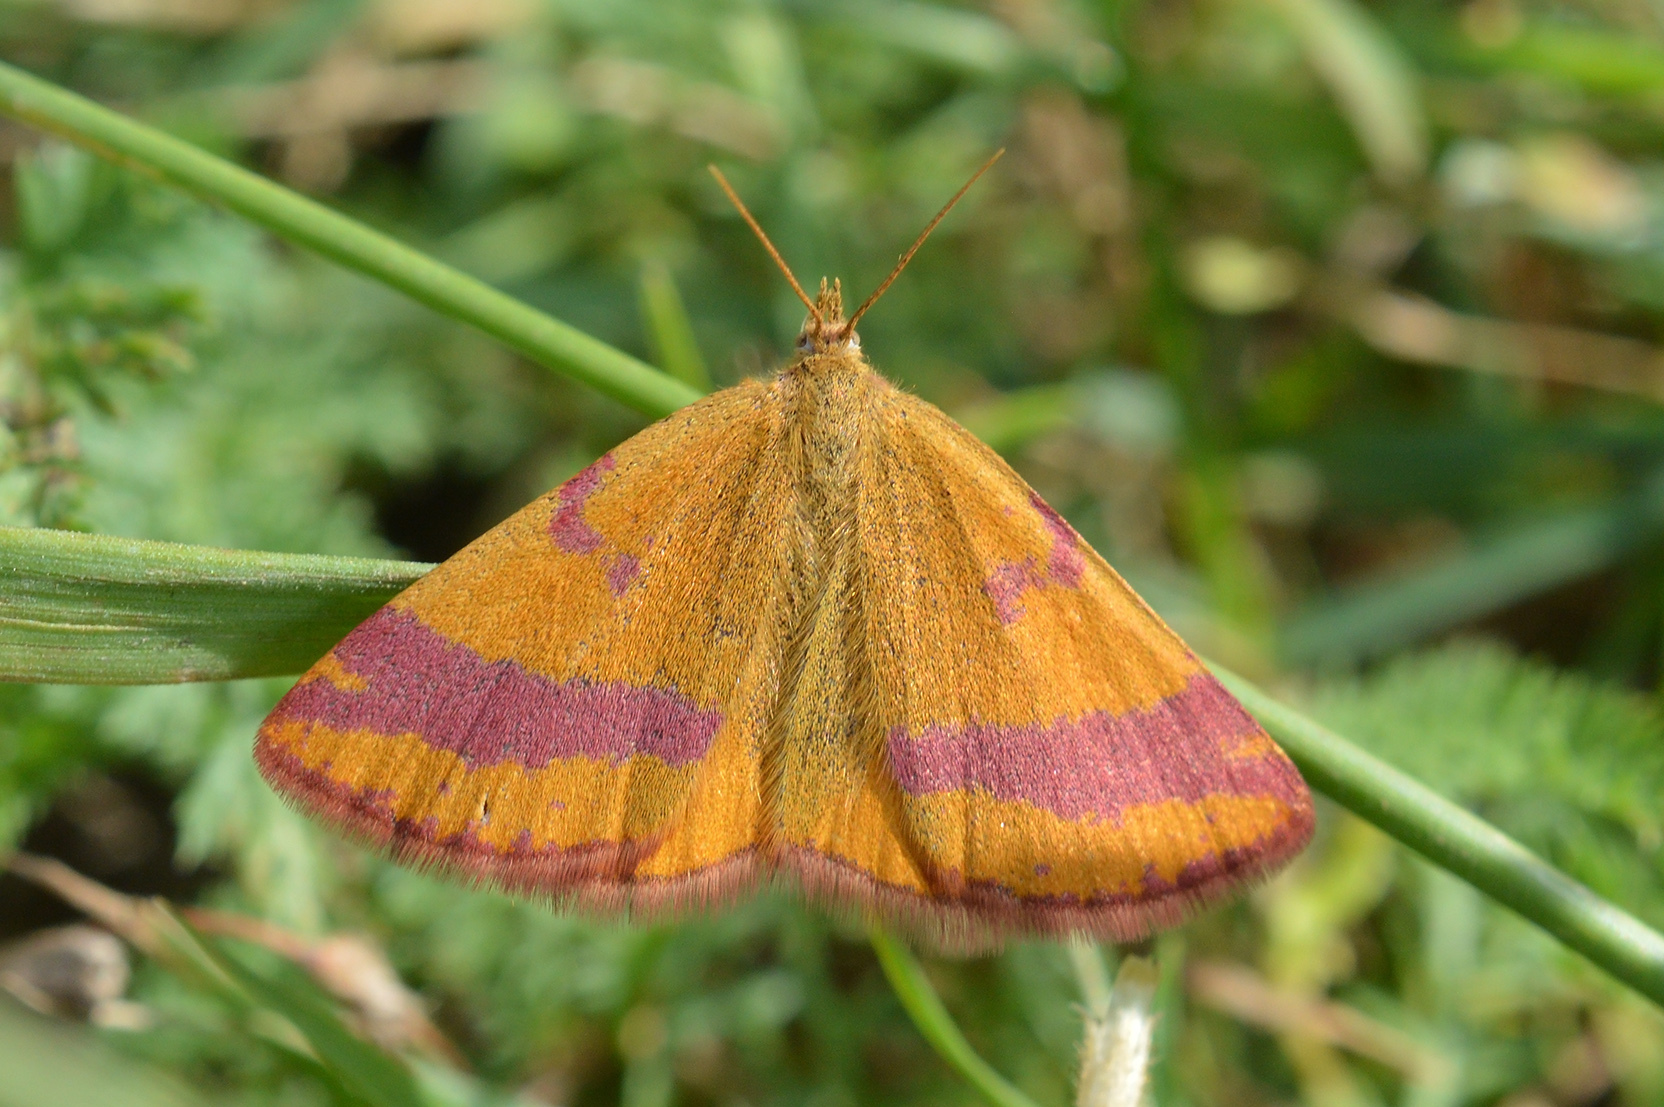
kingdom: Animalia
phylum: Arthropoda
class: Insecta
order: Lepidoptera
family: Geometridae
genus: Lythria
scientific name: Lythria cruentaria
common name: Purple-barred yellow
